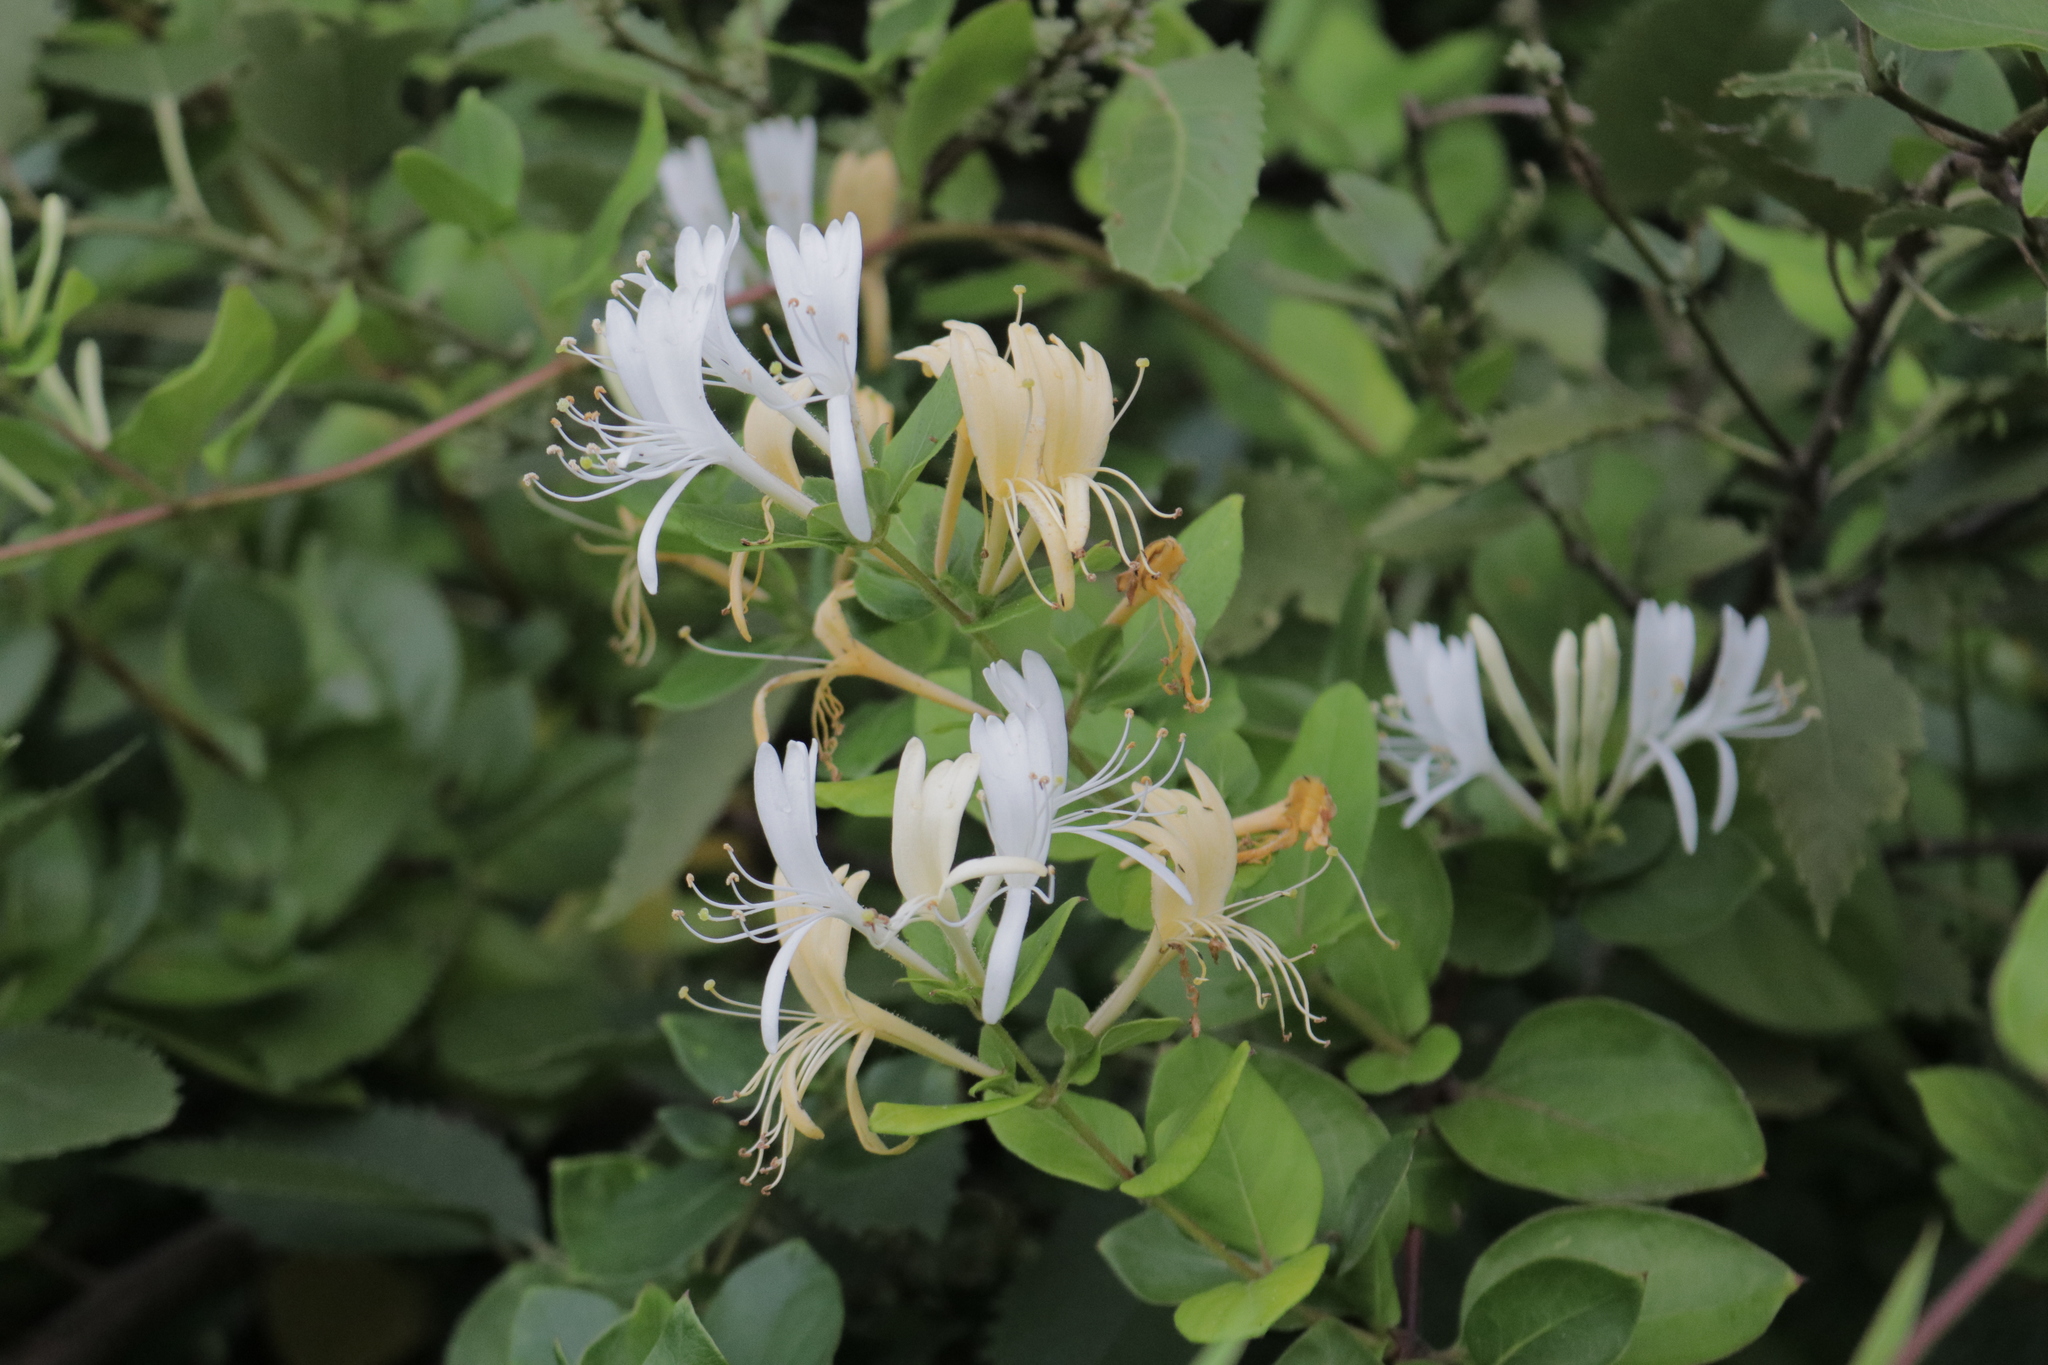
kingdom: Plantae
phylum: Tracheophyta
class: Magnoliopsida
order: Dipsacales
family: Caprifoliaceae
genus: Lonicera
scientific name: Lonicera japonica
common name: Japanese honeysuckle
